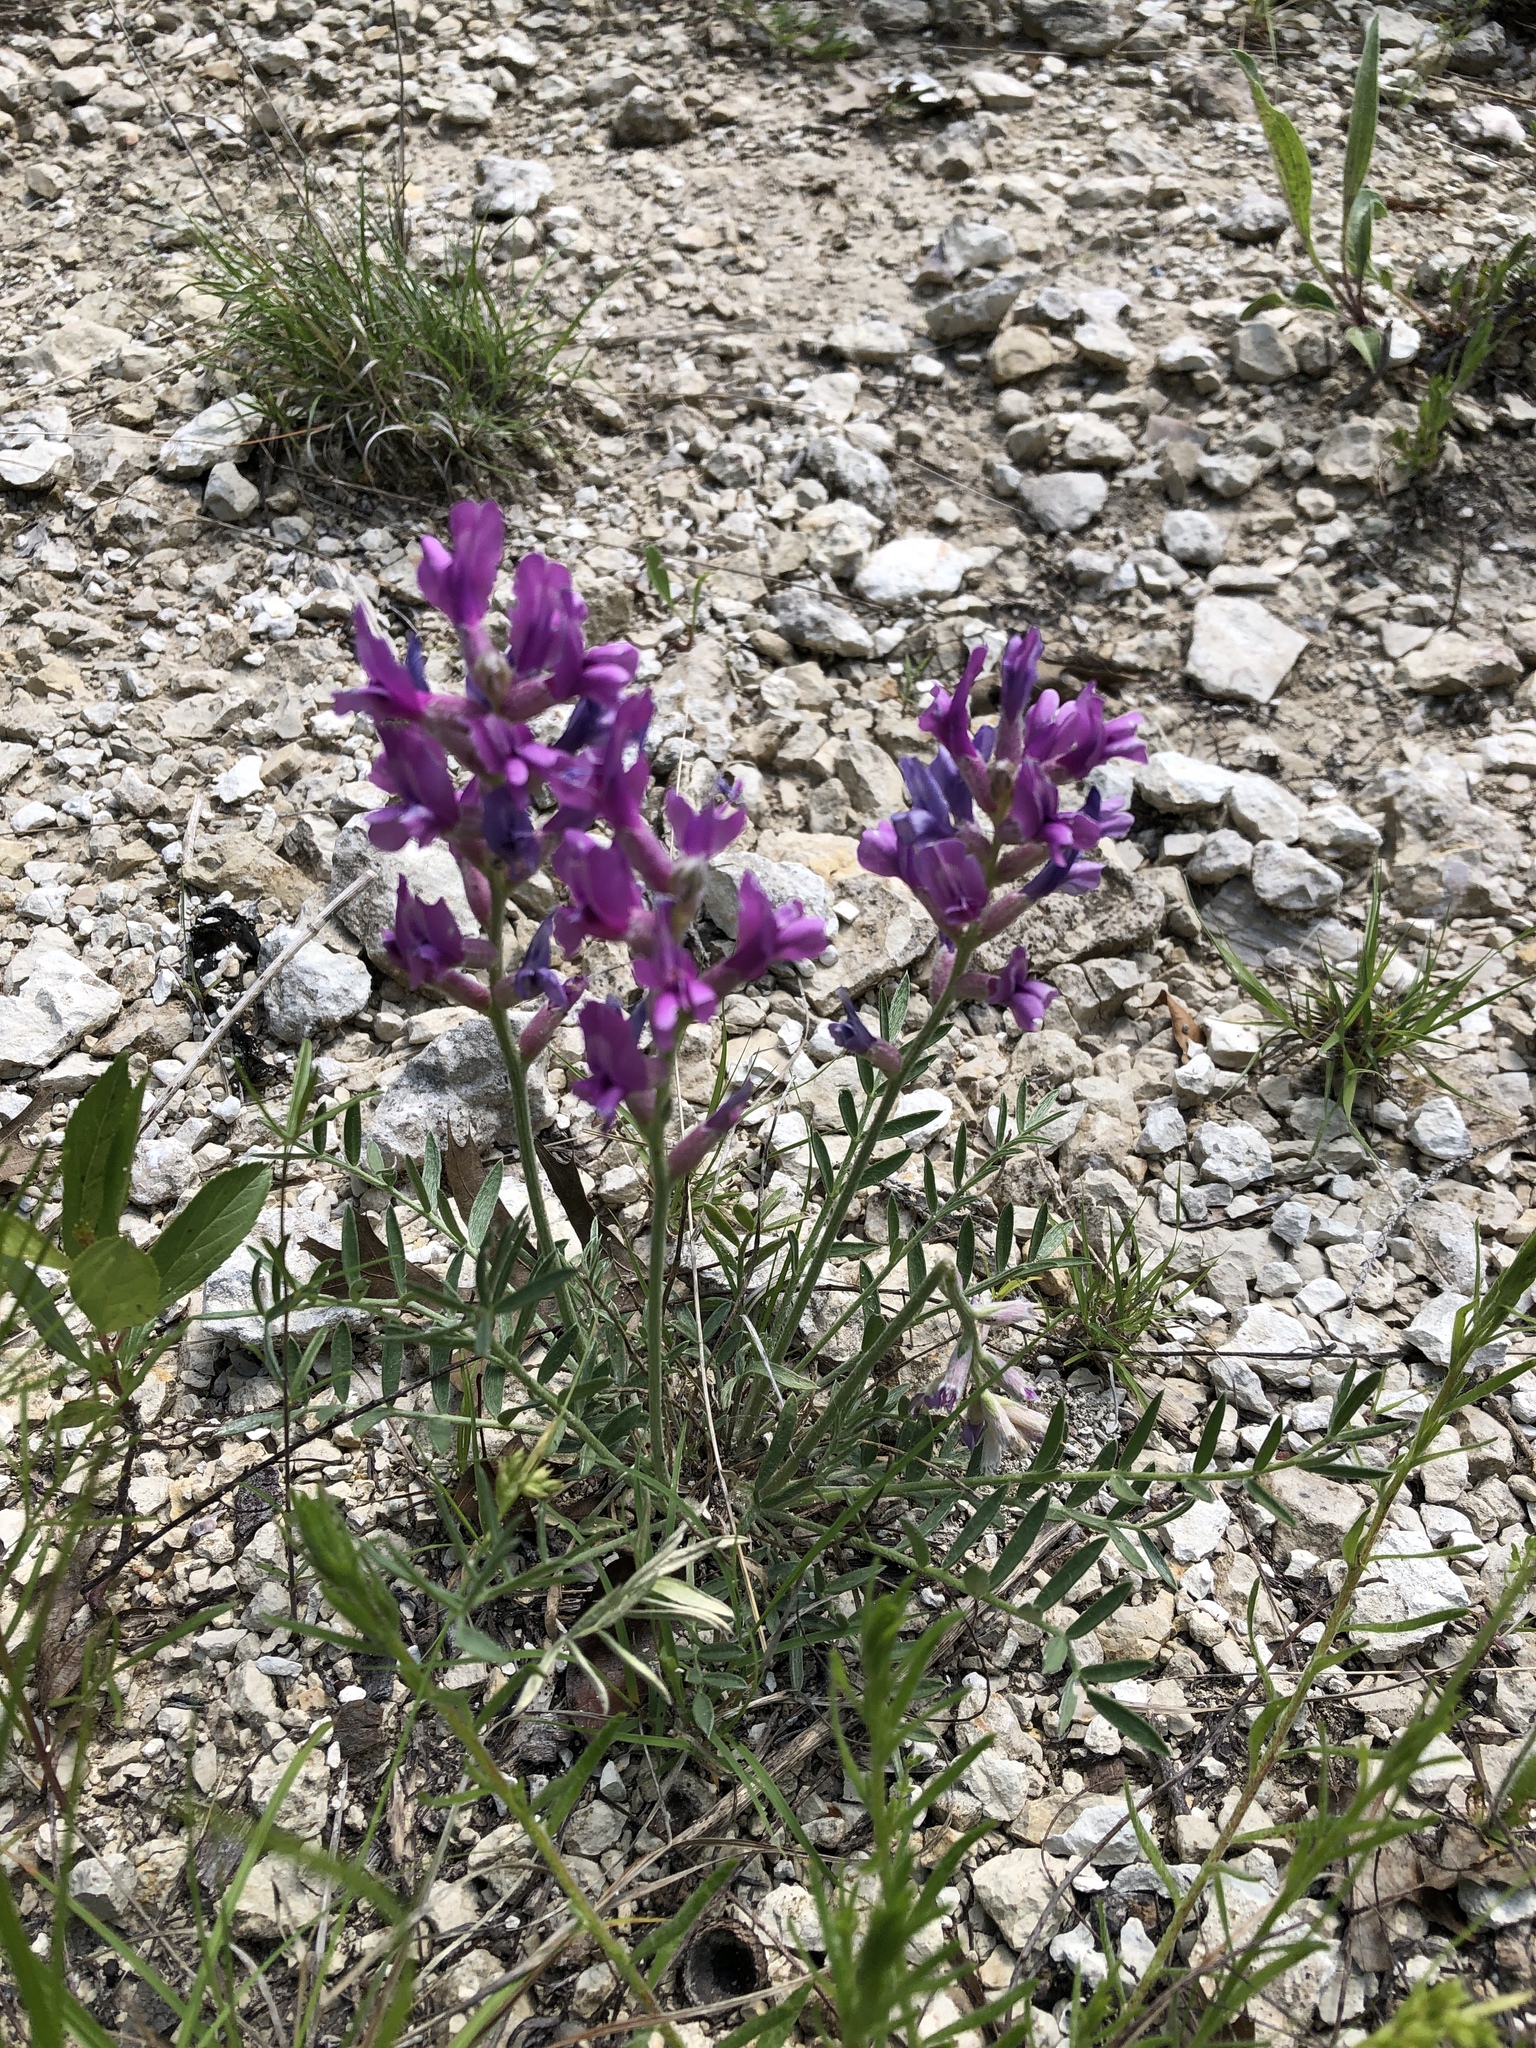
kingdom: Plantae
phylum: Tracheophyta
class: Magnoliopsida
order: Fabales
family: Fabaceae
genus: Oxytropis
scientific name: Oxytropis lambertii
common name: Purple locoweed
